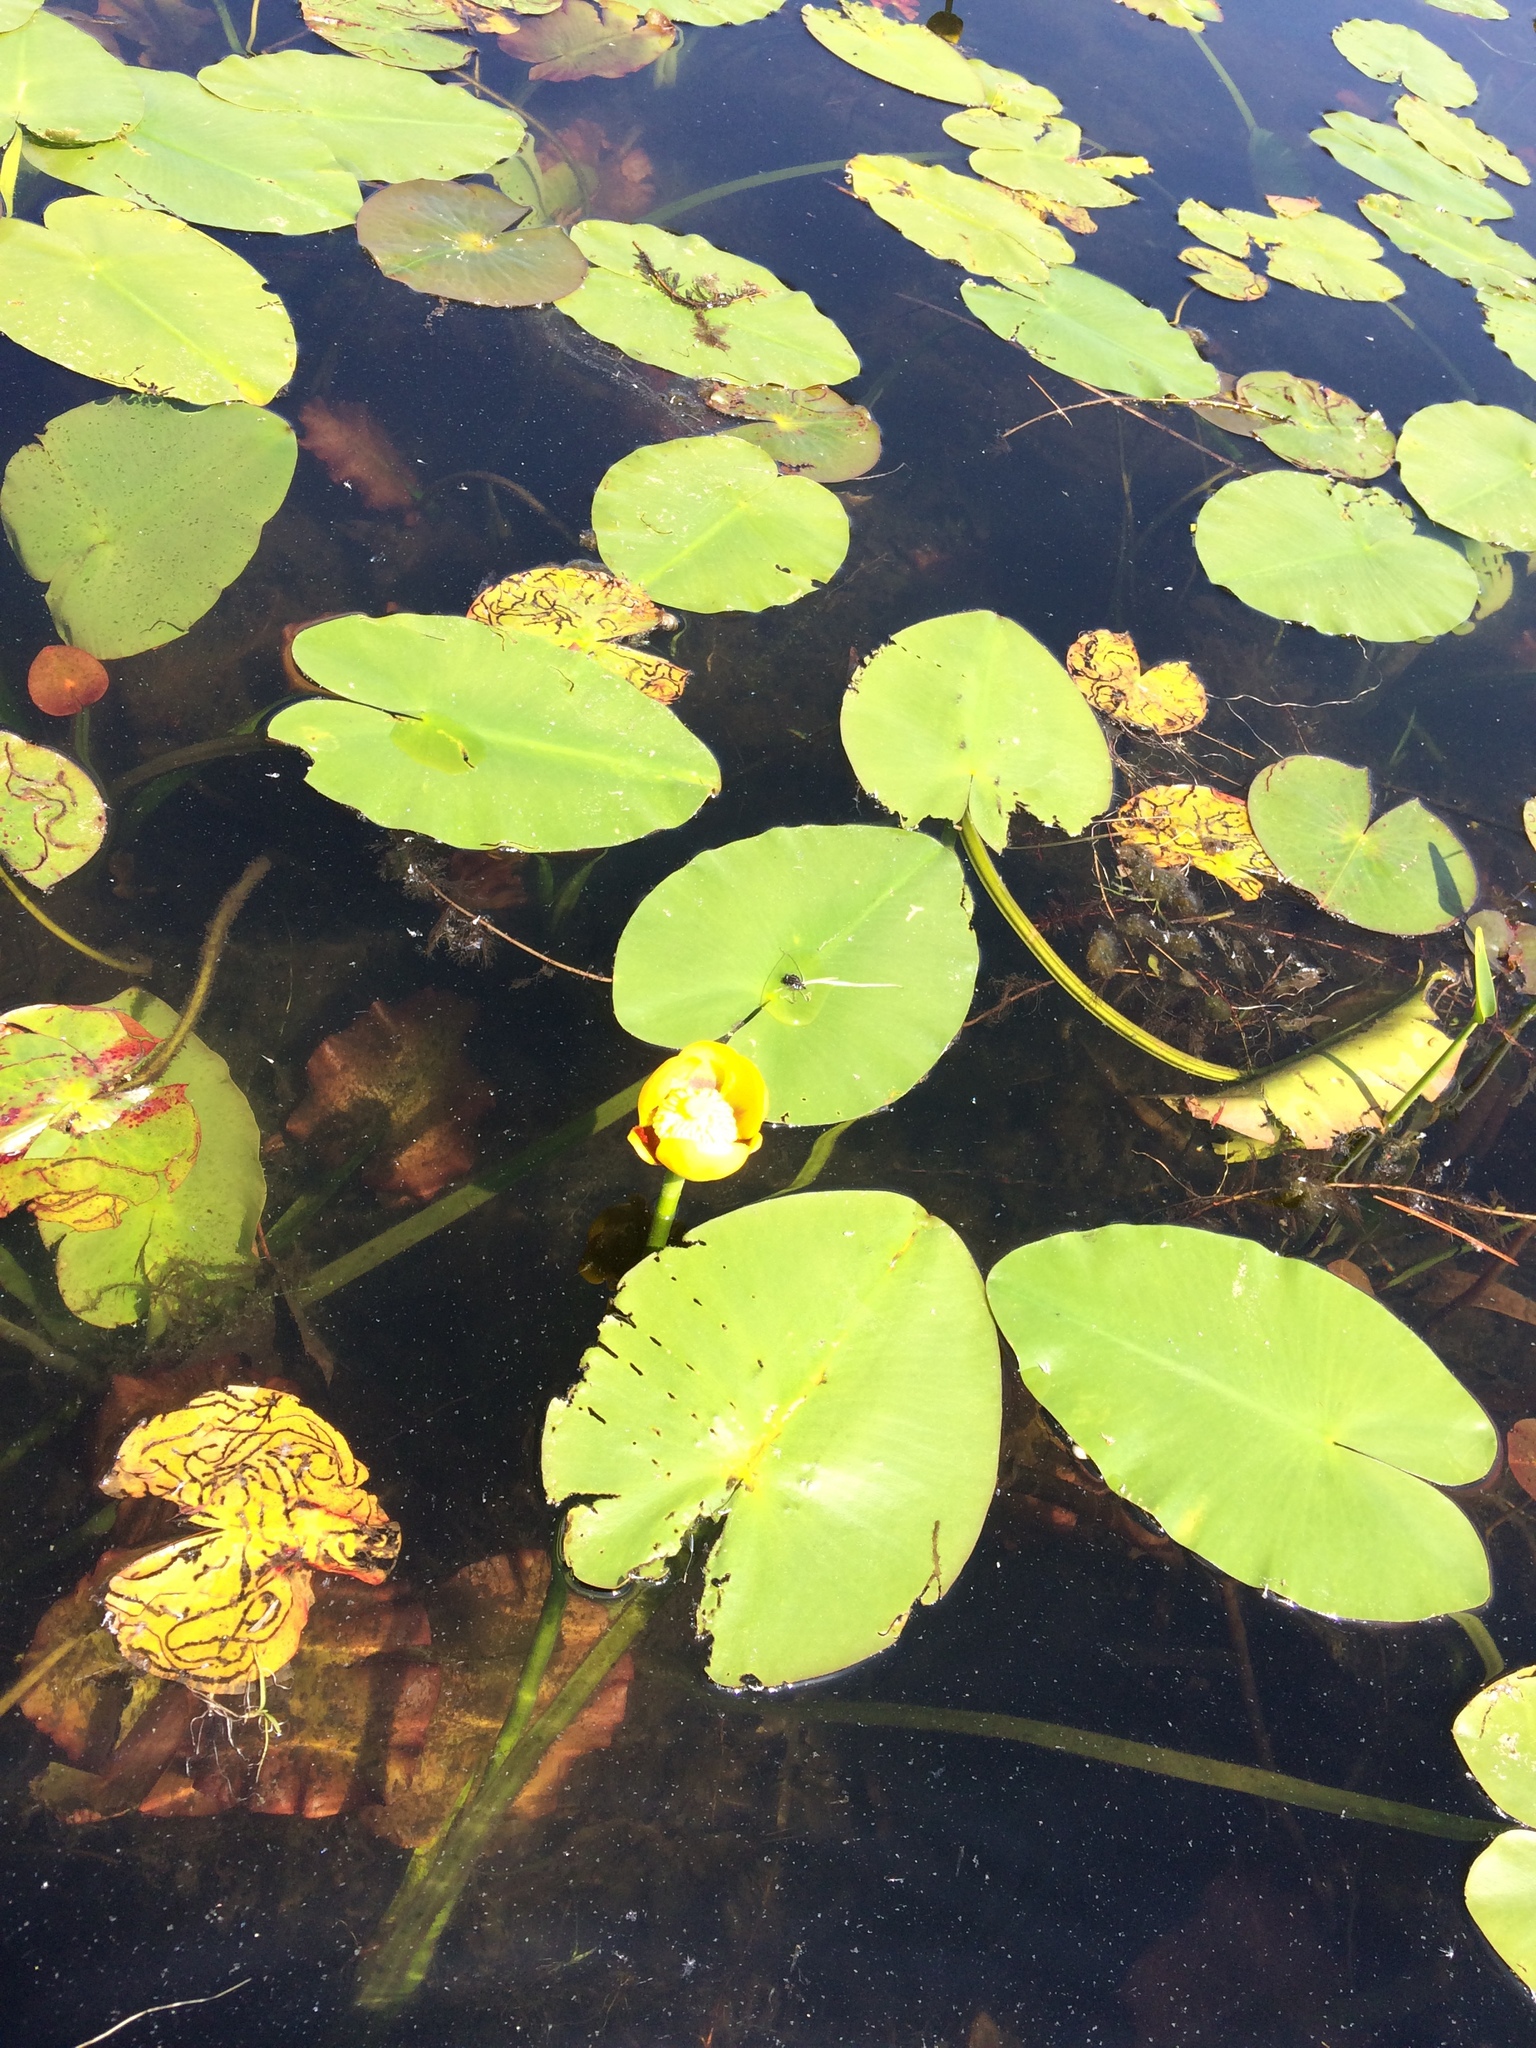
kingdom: Plantae
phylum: Tracheophyta
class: Magnoliopsida
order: Nymphaeales
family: Nymphaeaceae
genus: Nuphar
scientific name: Nuphar variegata
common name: Beaver-root
